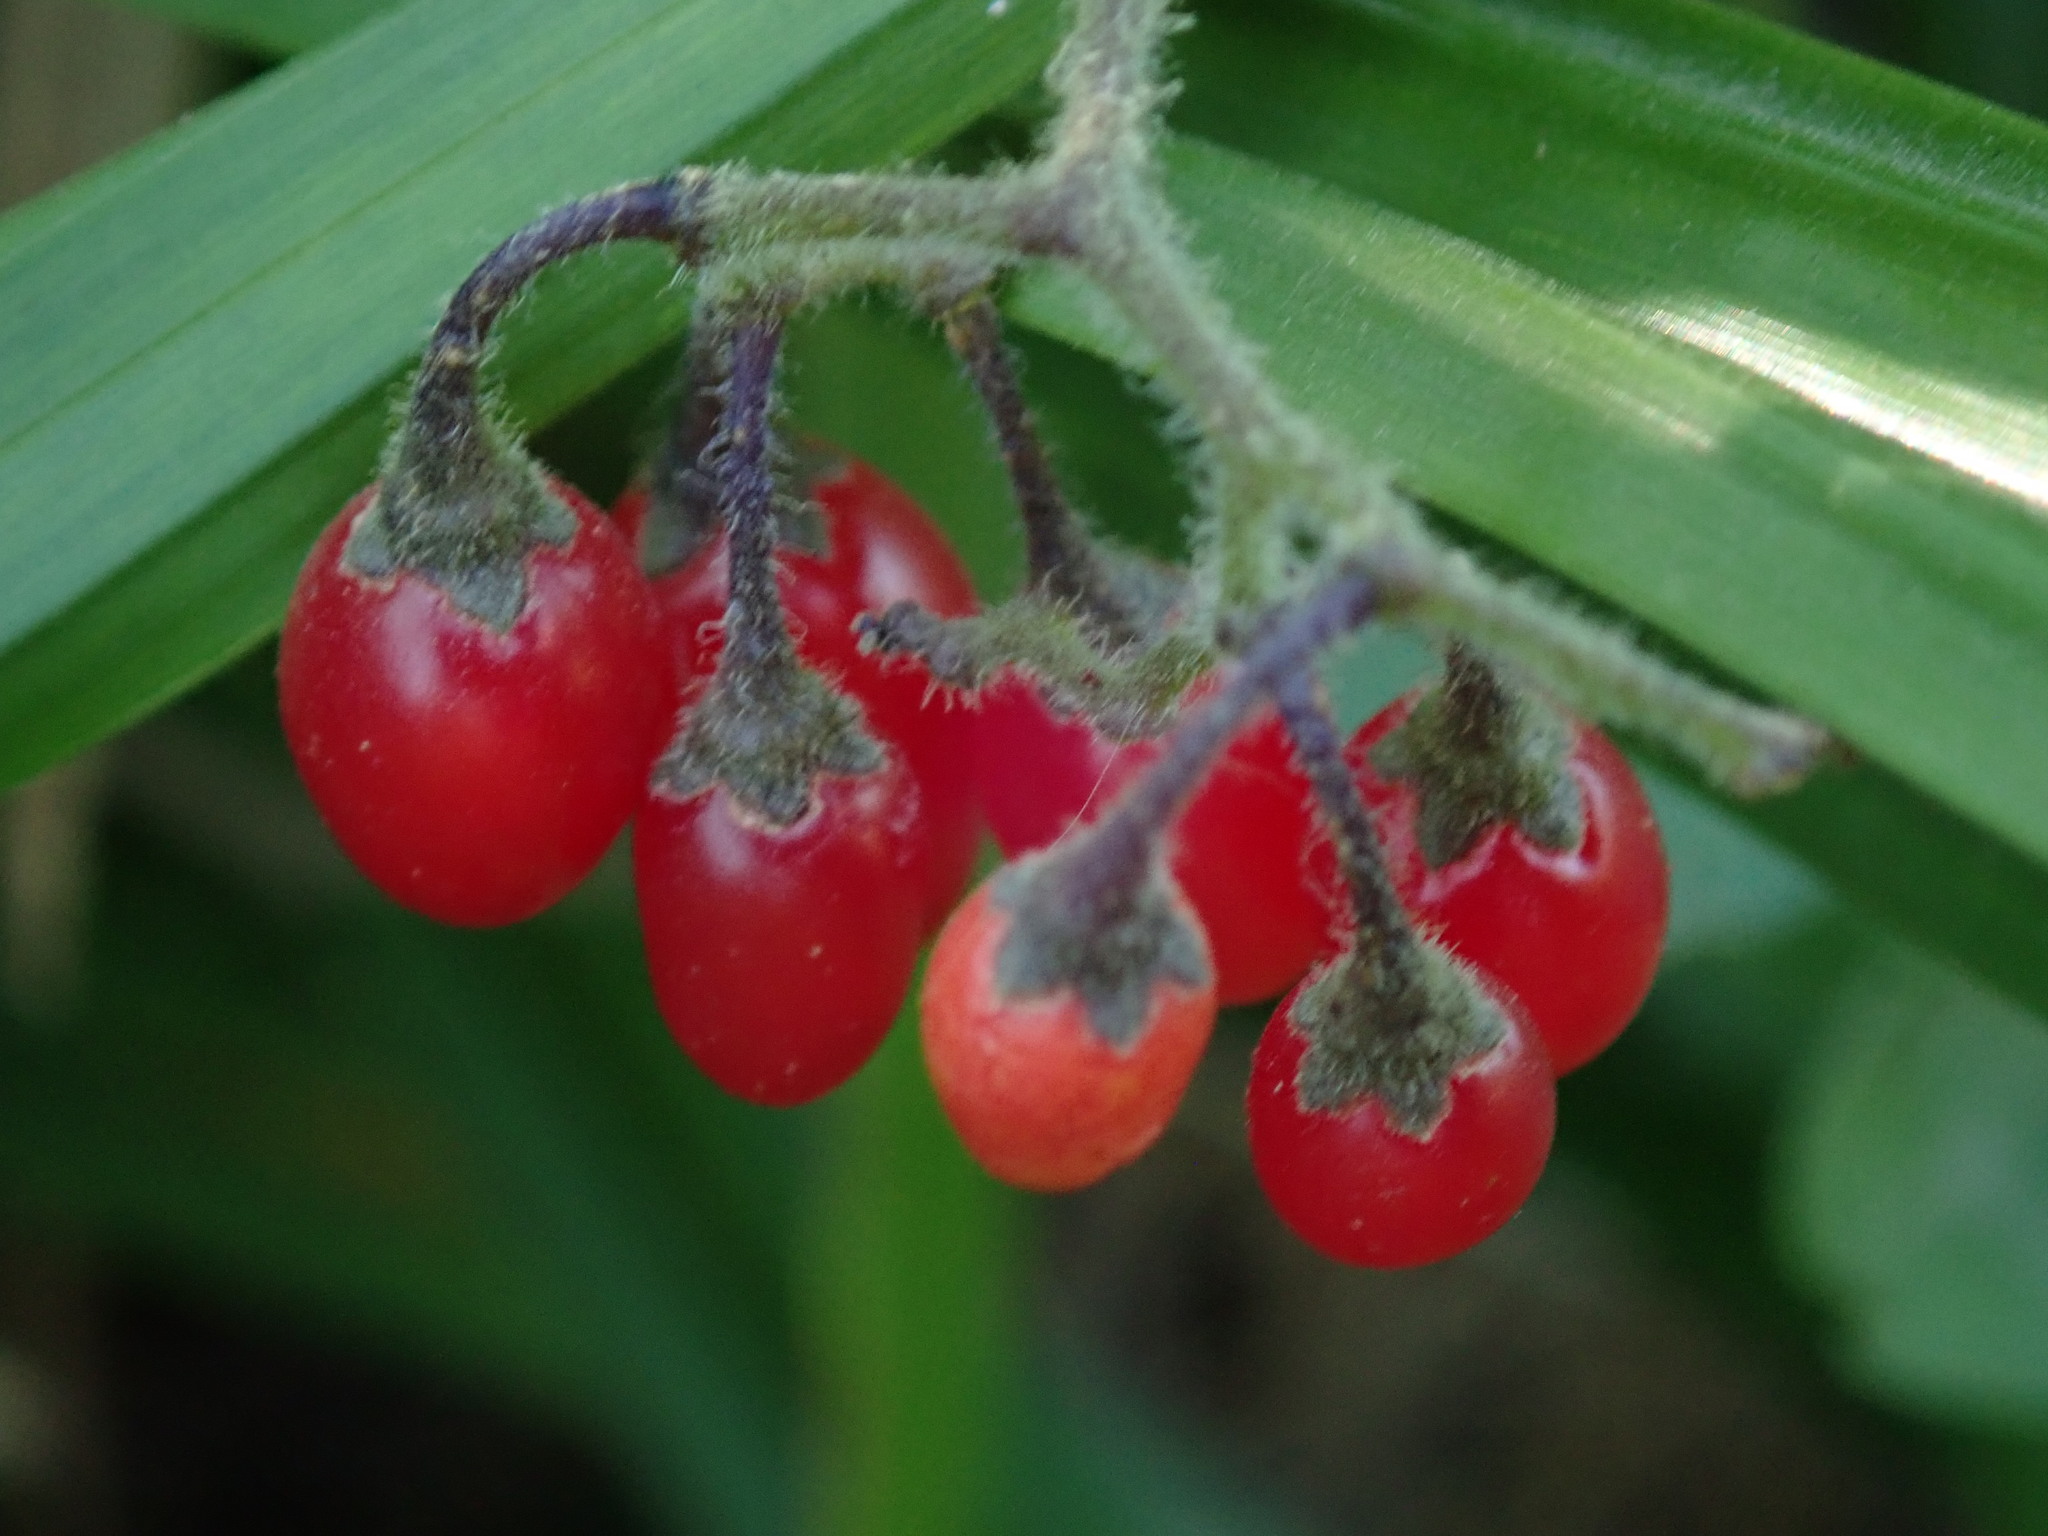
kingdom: Plantae
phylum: Tracheophyta
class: Magnoliopsida
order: Solanales
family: Solanaceae
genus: Solanum
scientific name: Solanum dulcamara
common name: Climbing nightshade
